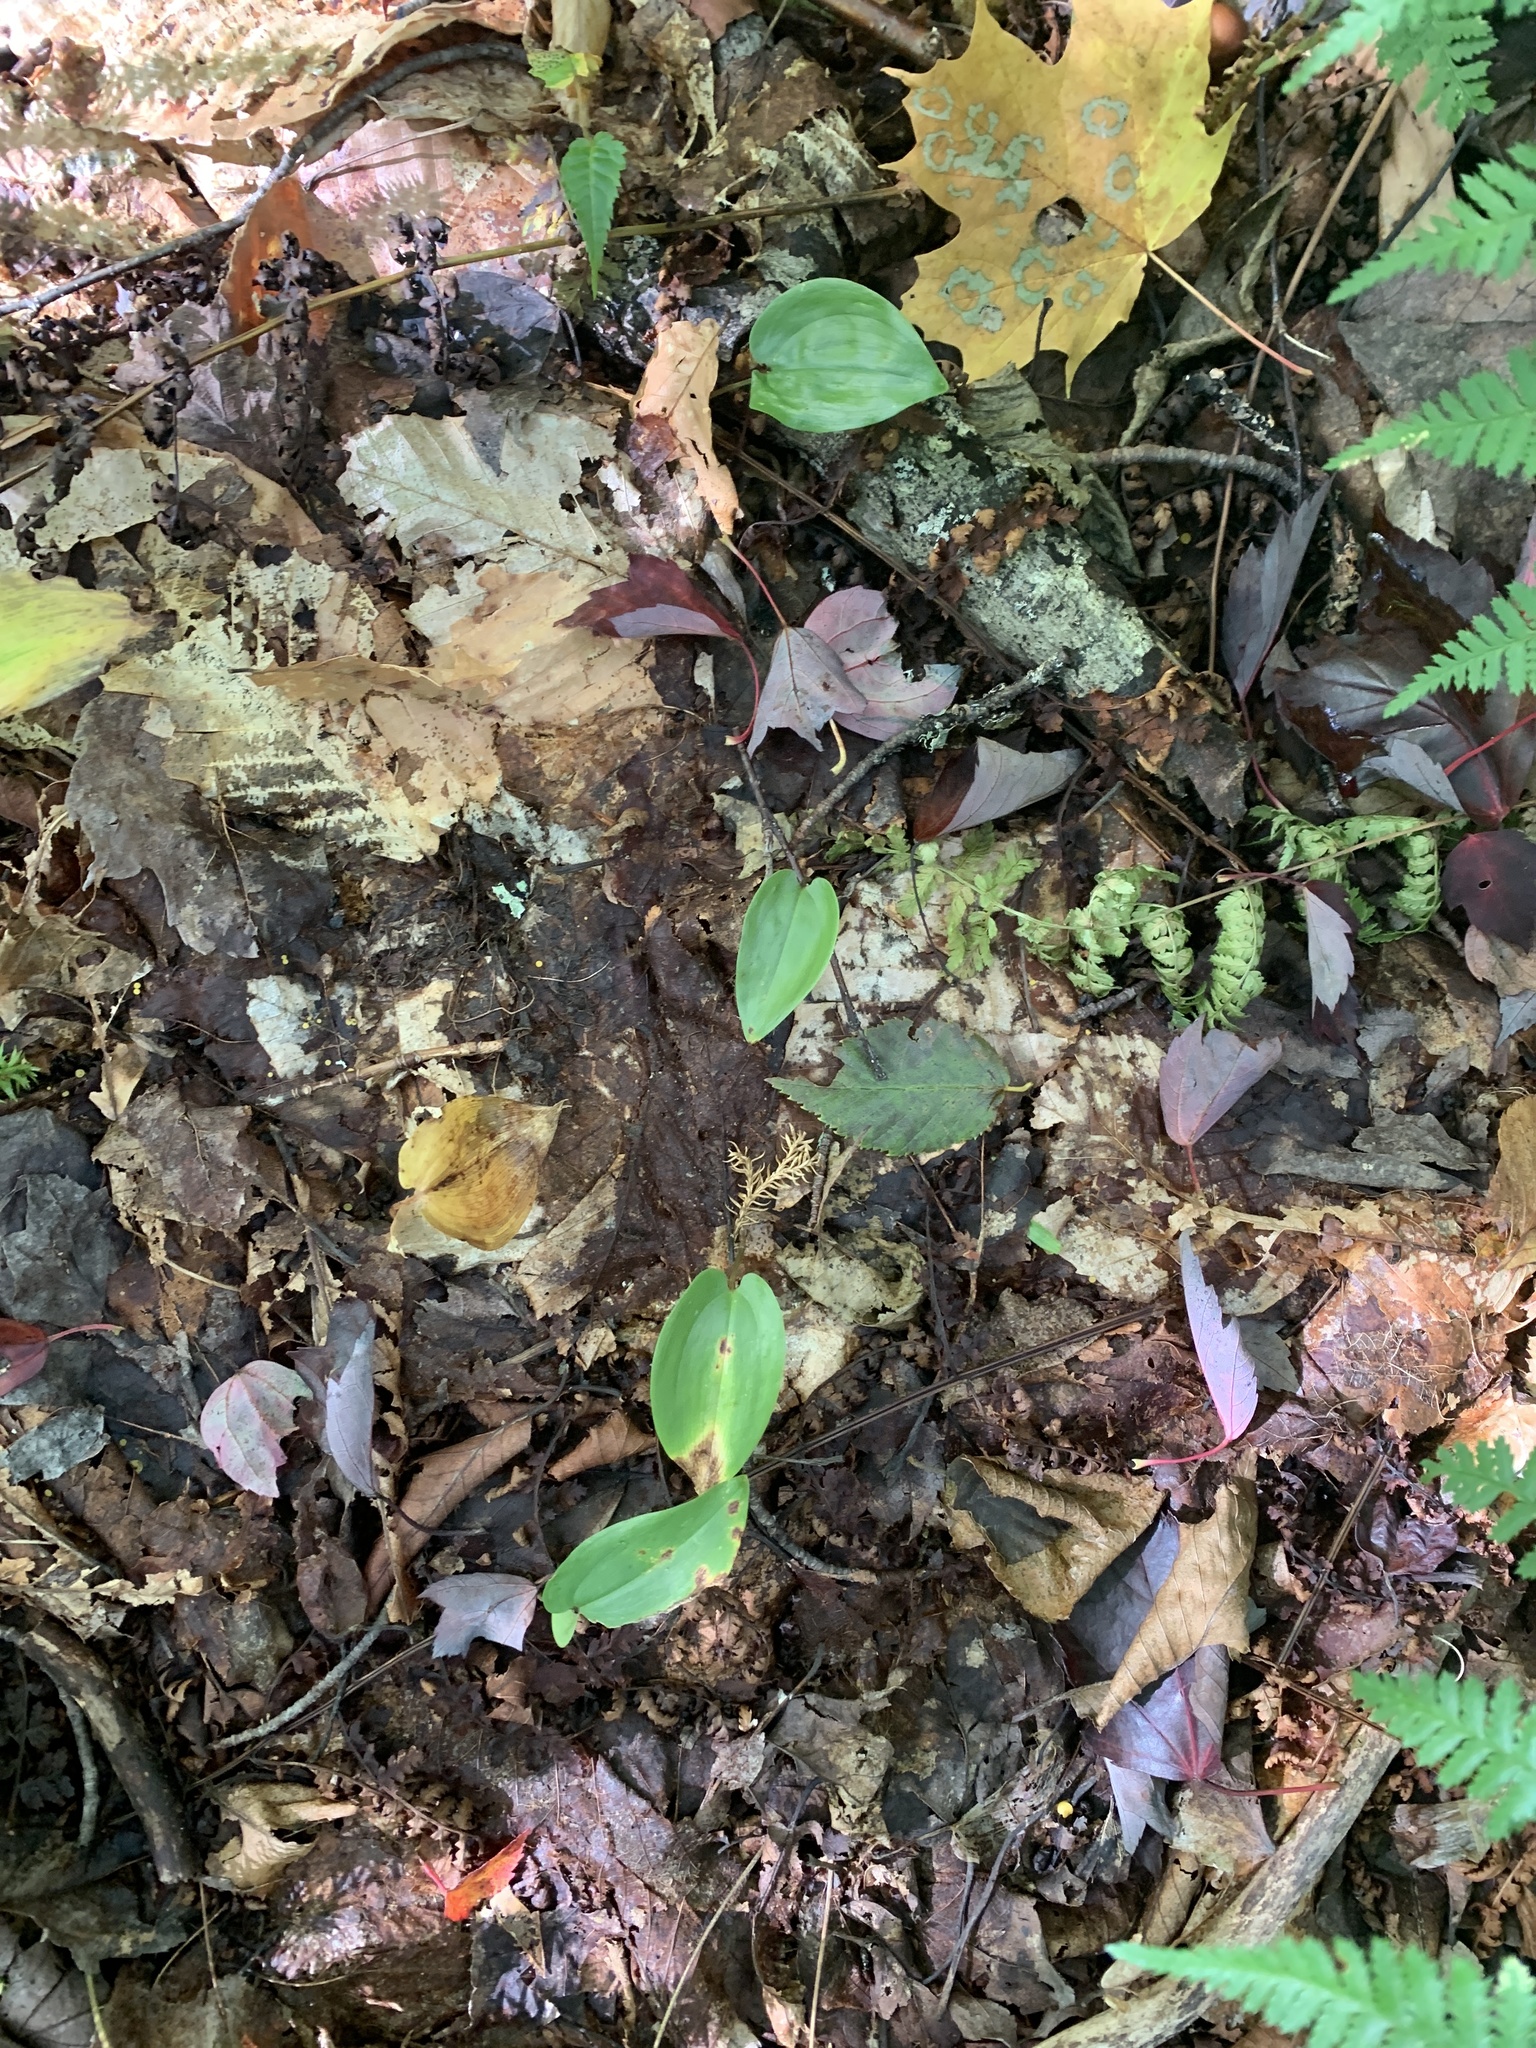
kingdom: Plantae
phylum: Tracheophyta
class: Liliopsida
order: Asparagales
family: Asparagaceae
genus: Maianthemum
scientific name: Maianthemum canadense
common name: False lily-of-the-valley
